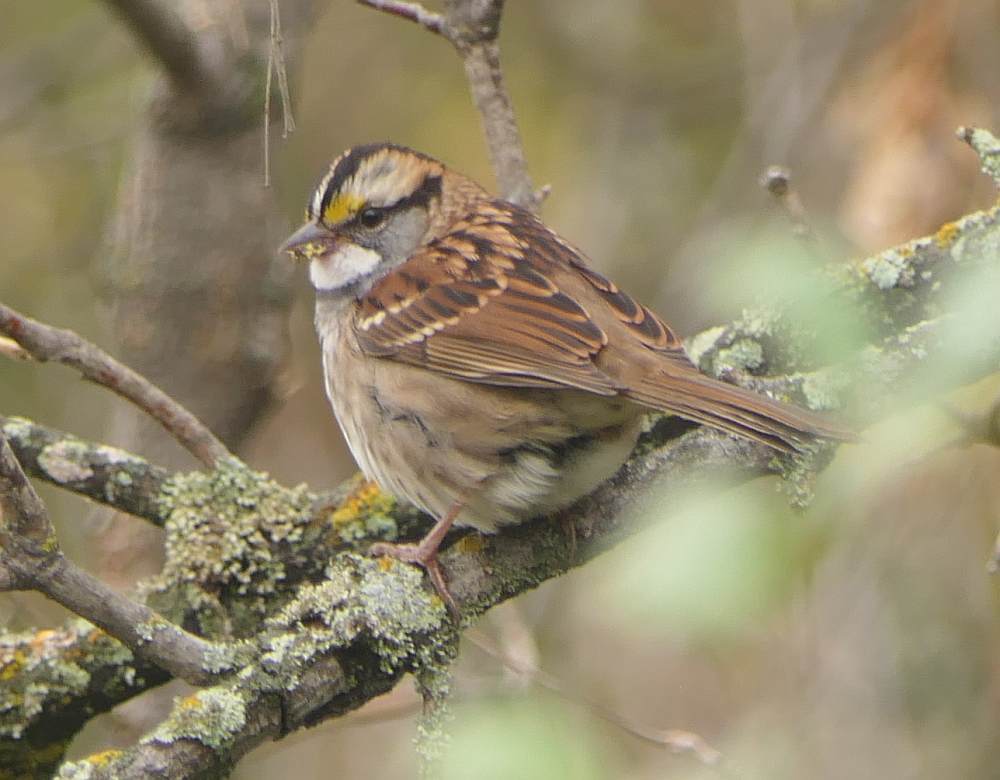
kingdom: Animalia
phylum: Chordata
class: Aves
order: Passeriformes
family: Passerellidae
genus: Zonotrichia
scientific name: Zonotrichia albicollis
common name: White-throated sparrow
